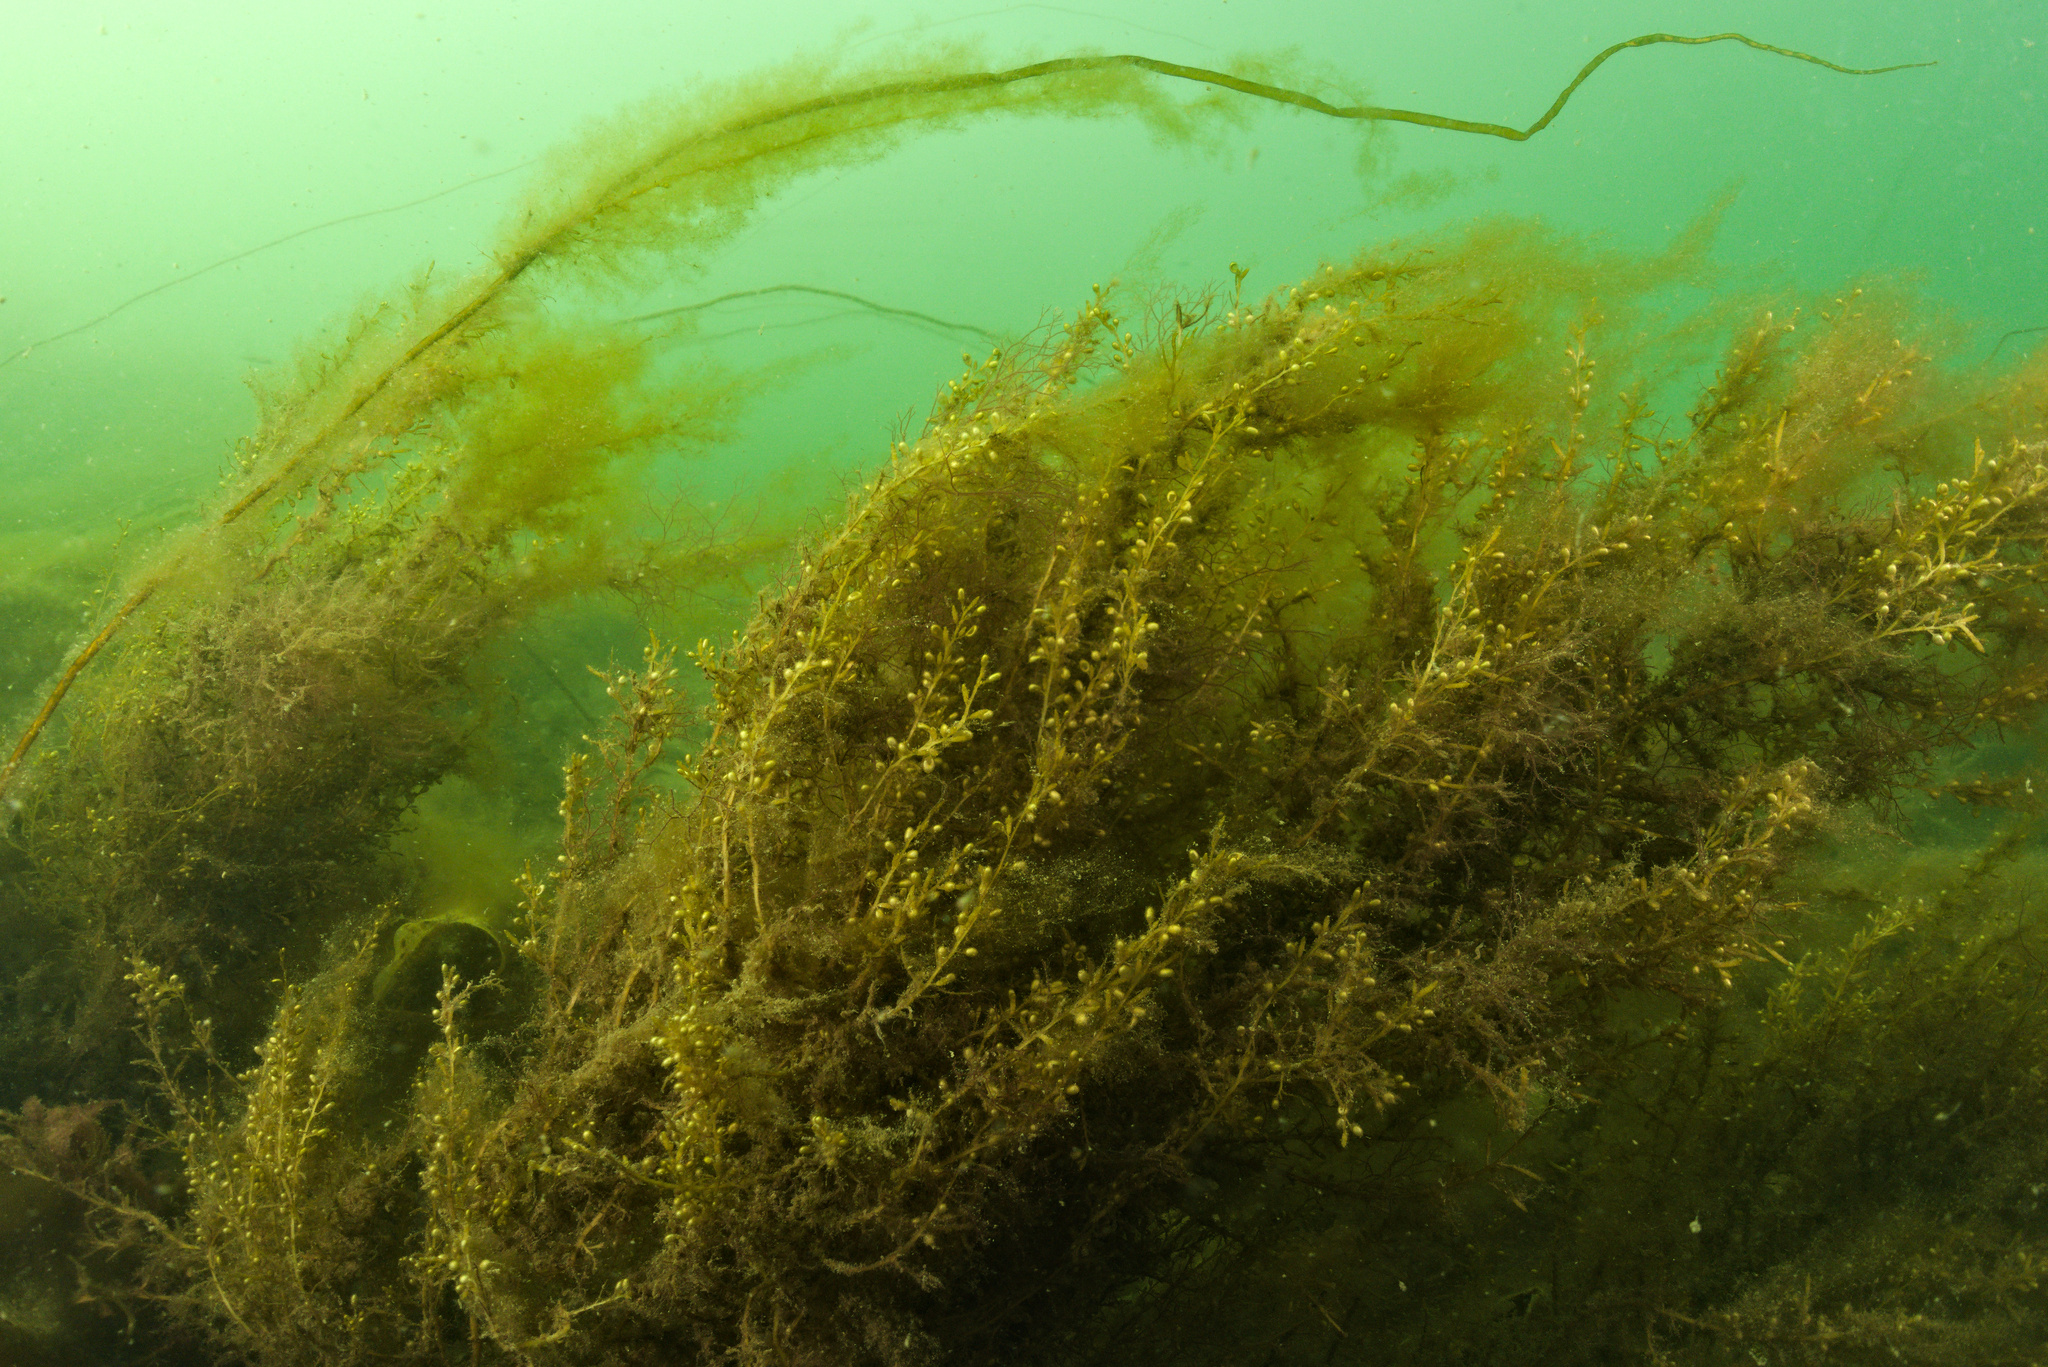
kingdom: Chromista
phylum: Ochrophyta
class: Phaeophyceae
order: Fucales
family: Sargassaceae
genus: Sargassum
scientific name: Sargassum muticum
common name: Japweed
